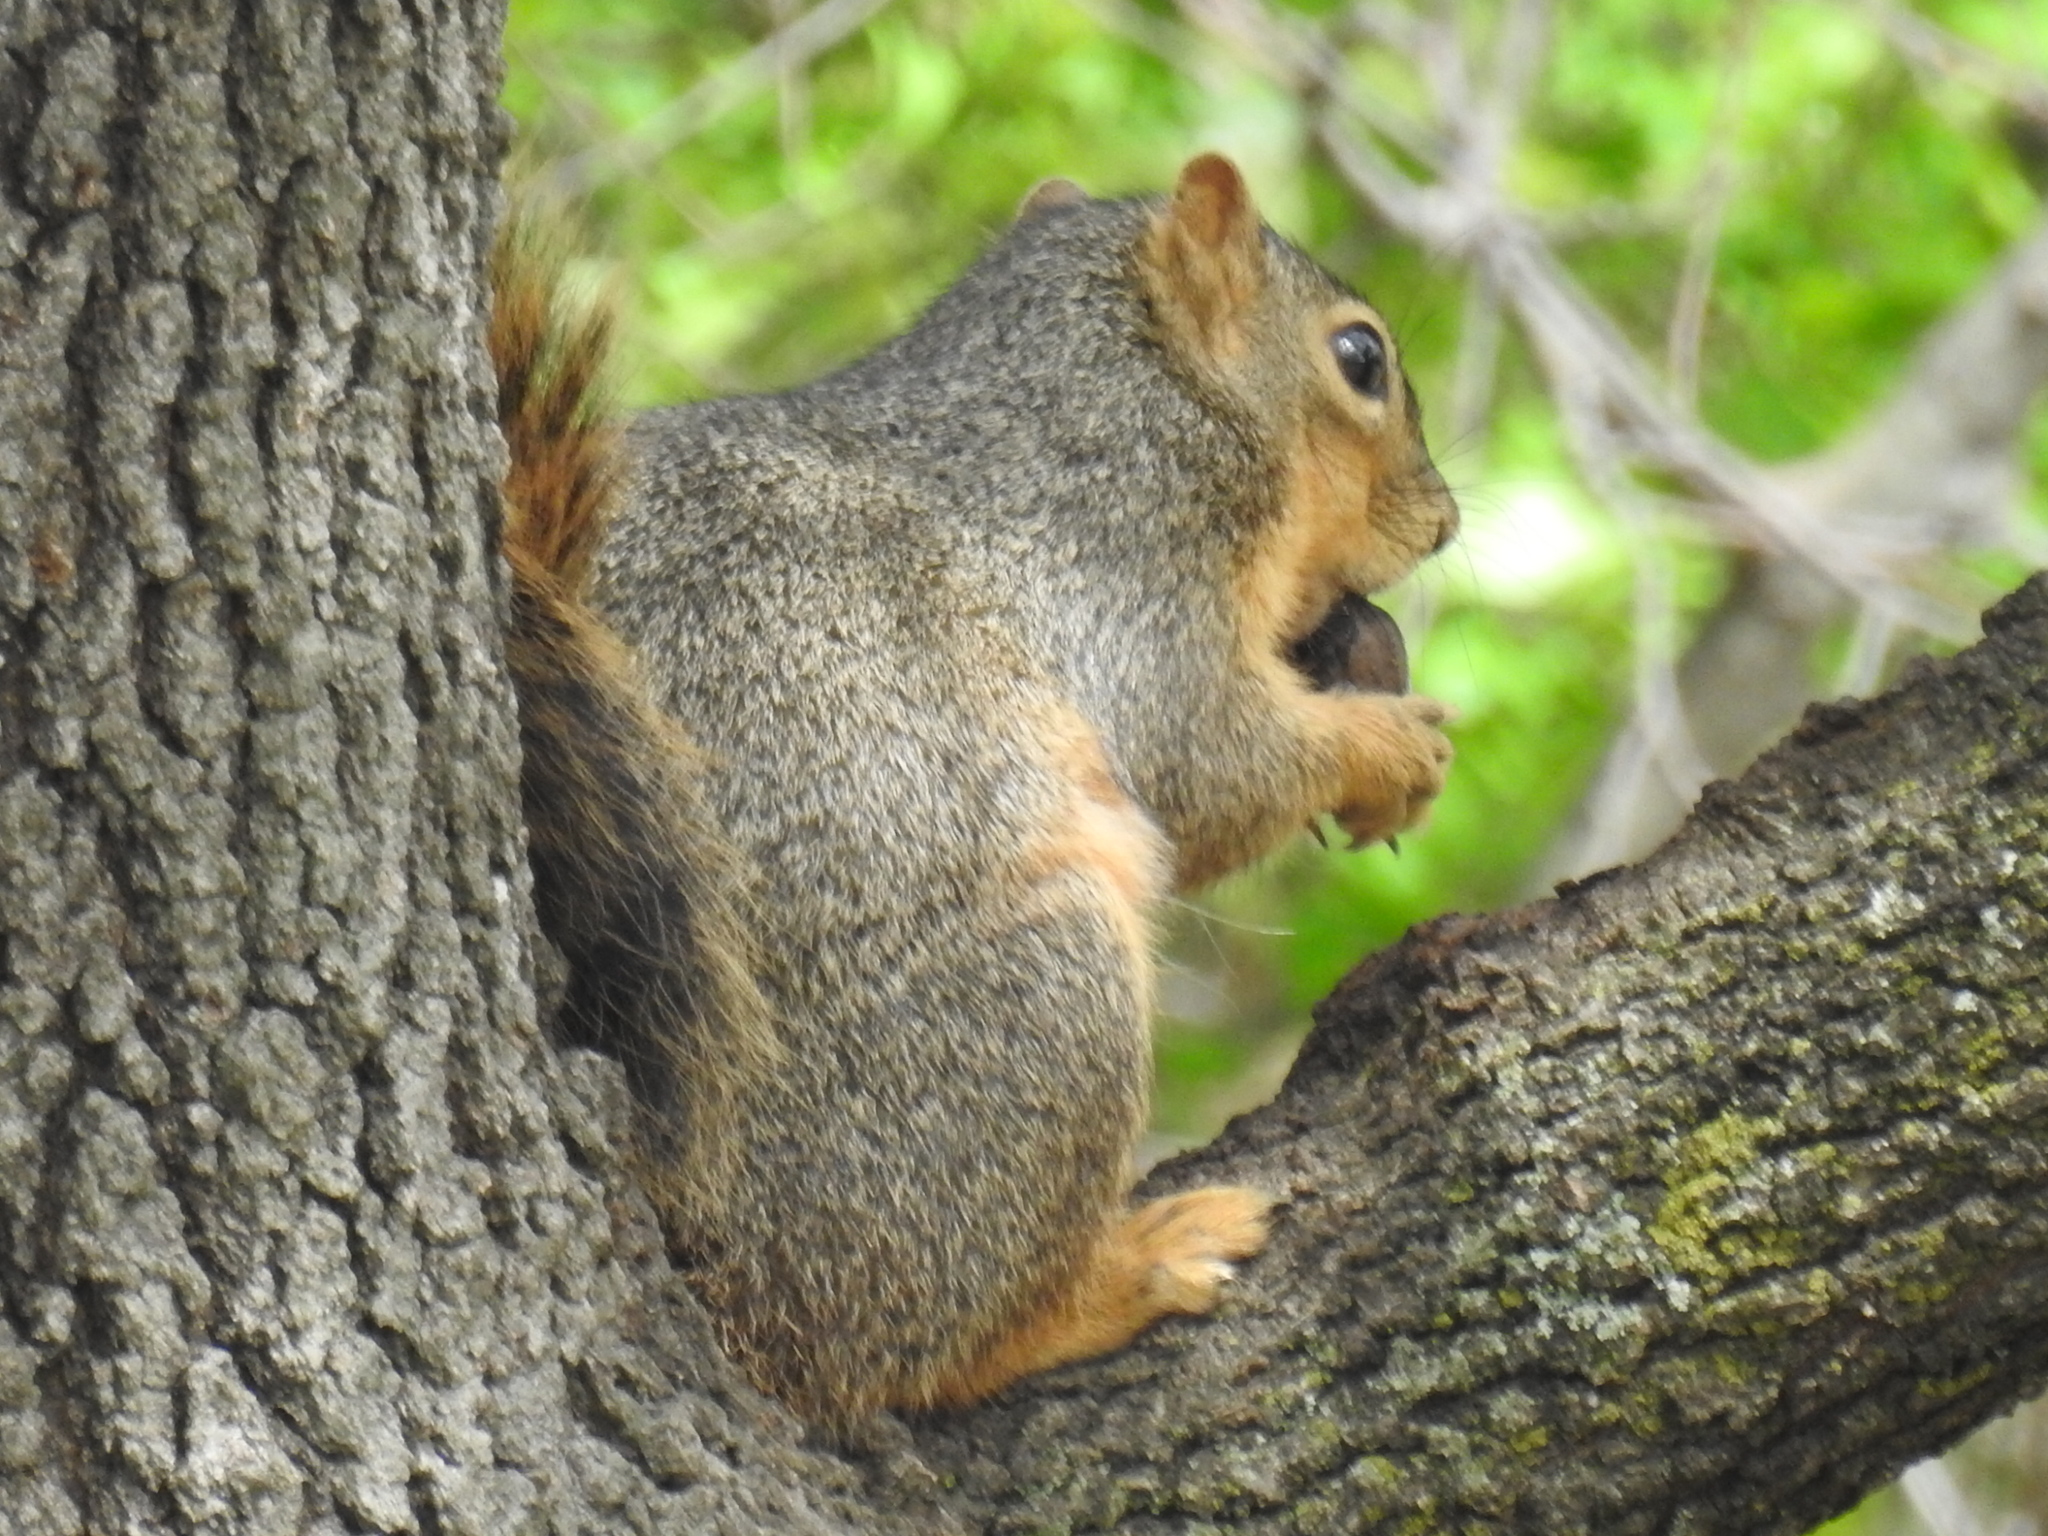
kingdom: Animalia
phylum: Chordata
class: Mammalia
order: Rodentia
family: Sciuridae
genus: Sciurus
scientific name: Sciurus niger
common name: Fox squirrel
